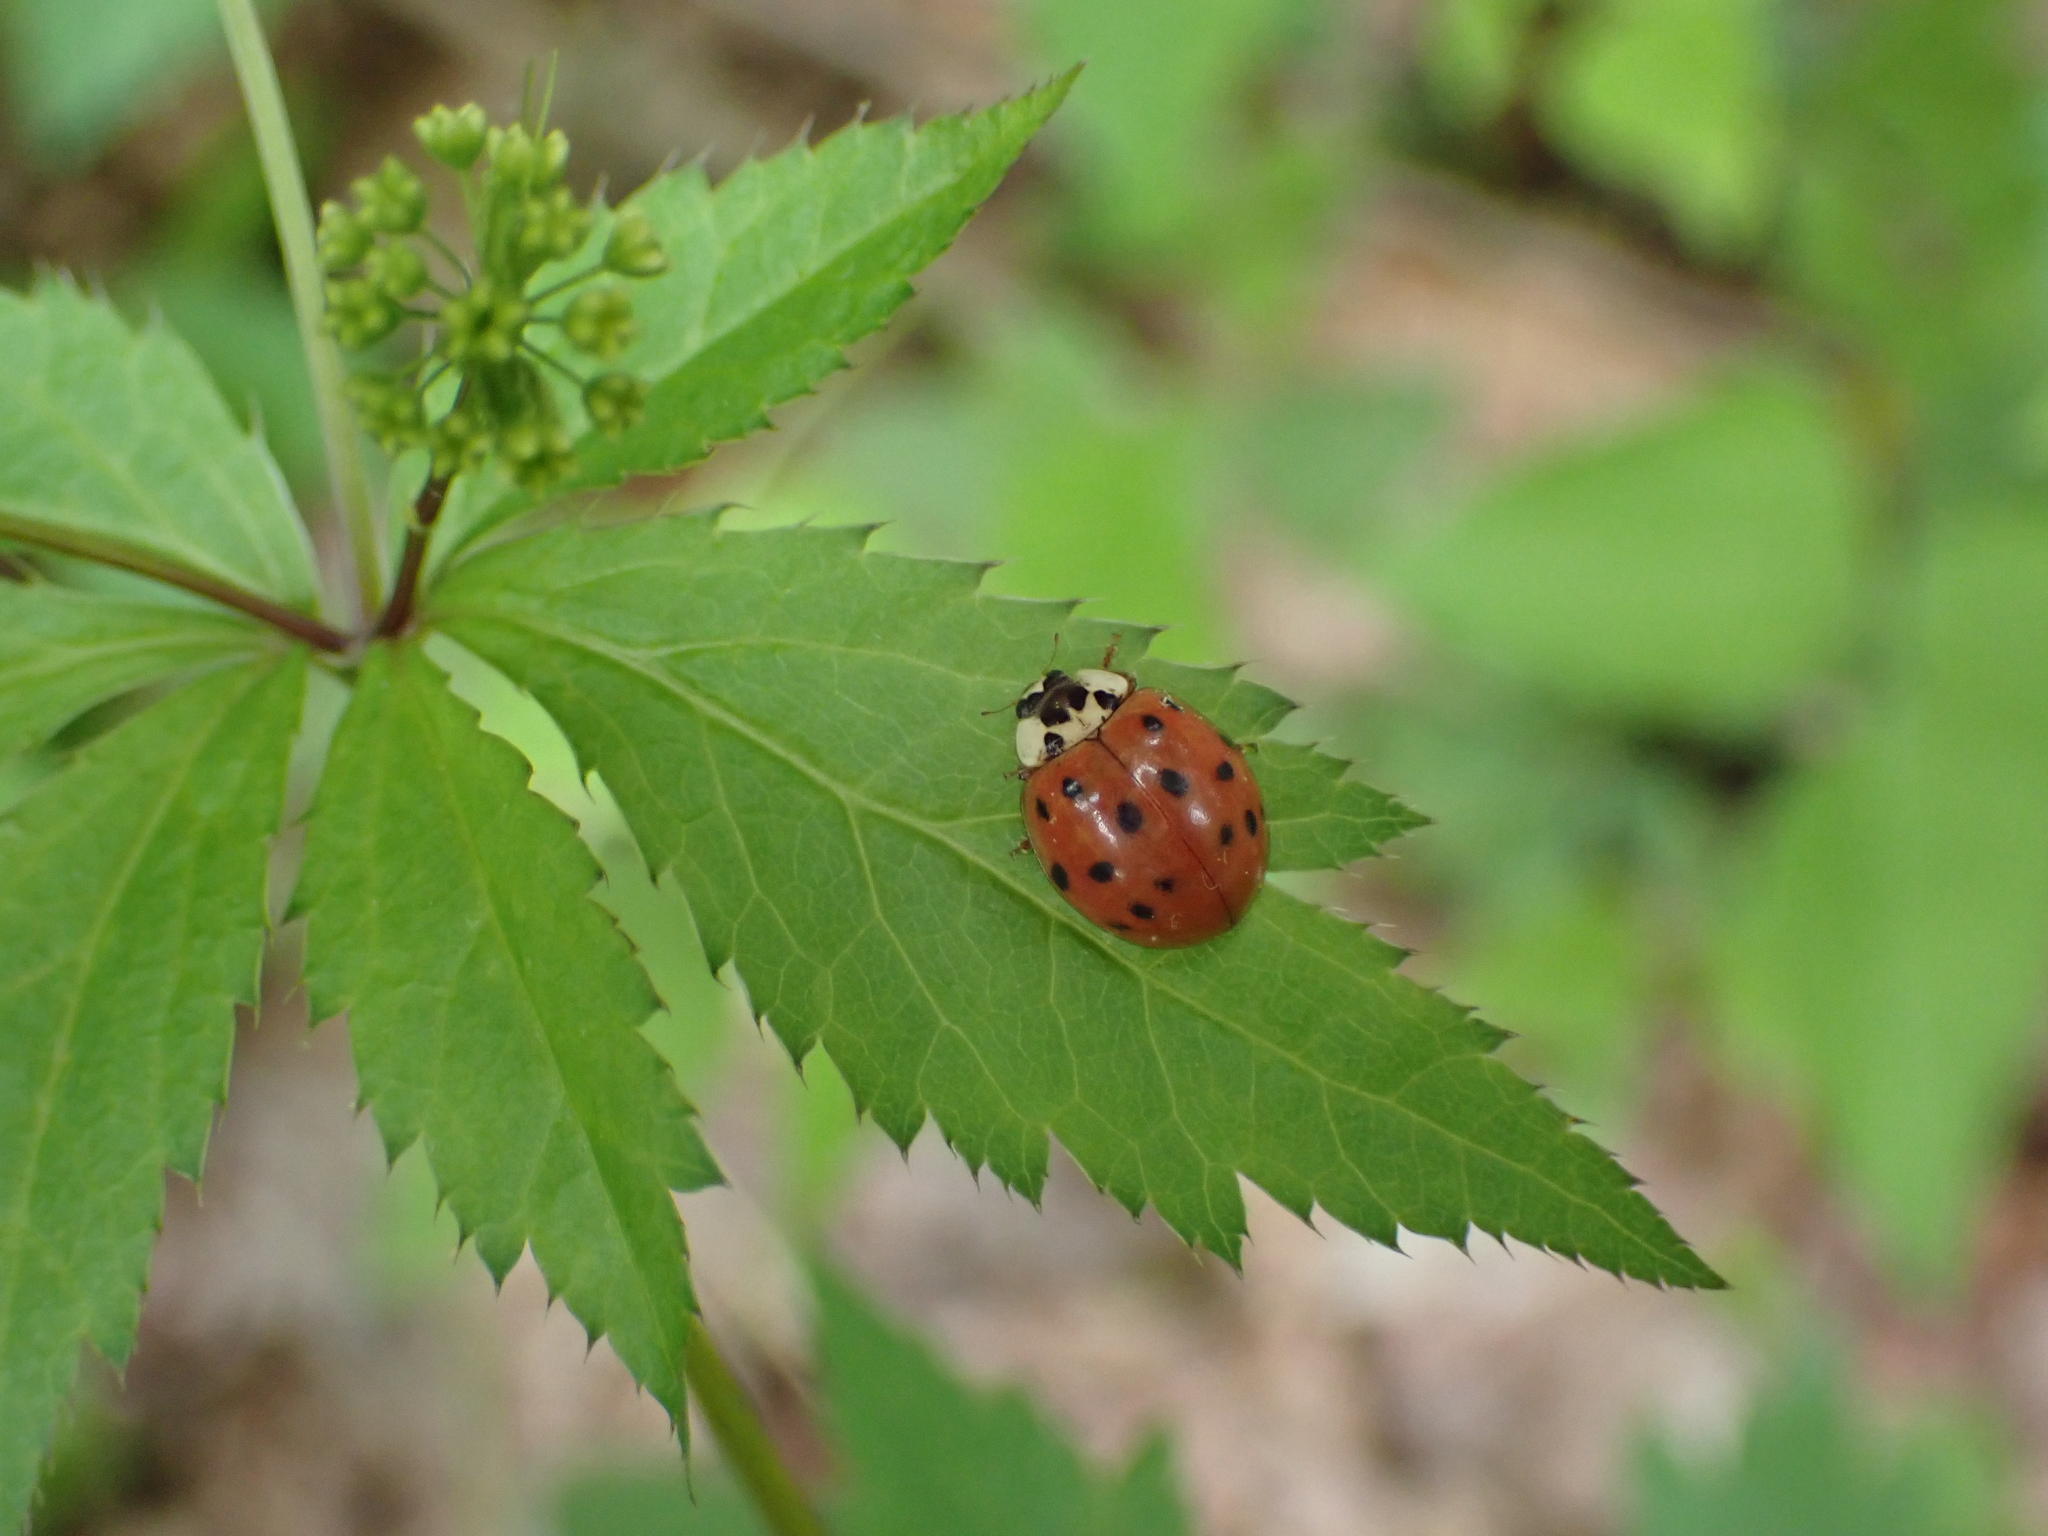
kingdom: Animalia
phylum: Arthropoda
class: Insecta
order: Coleoptera
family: Coccinellidae
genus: Harmonia
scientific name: Harmonia axyridis
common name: Harlequin ladybird
